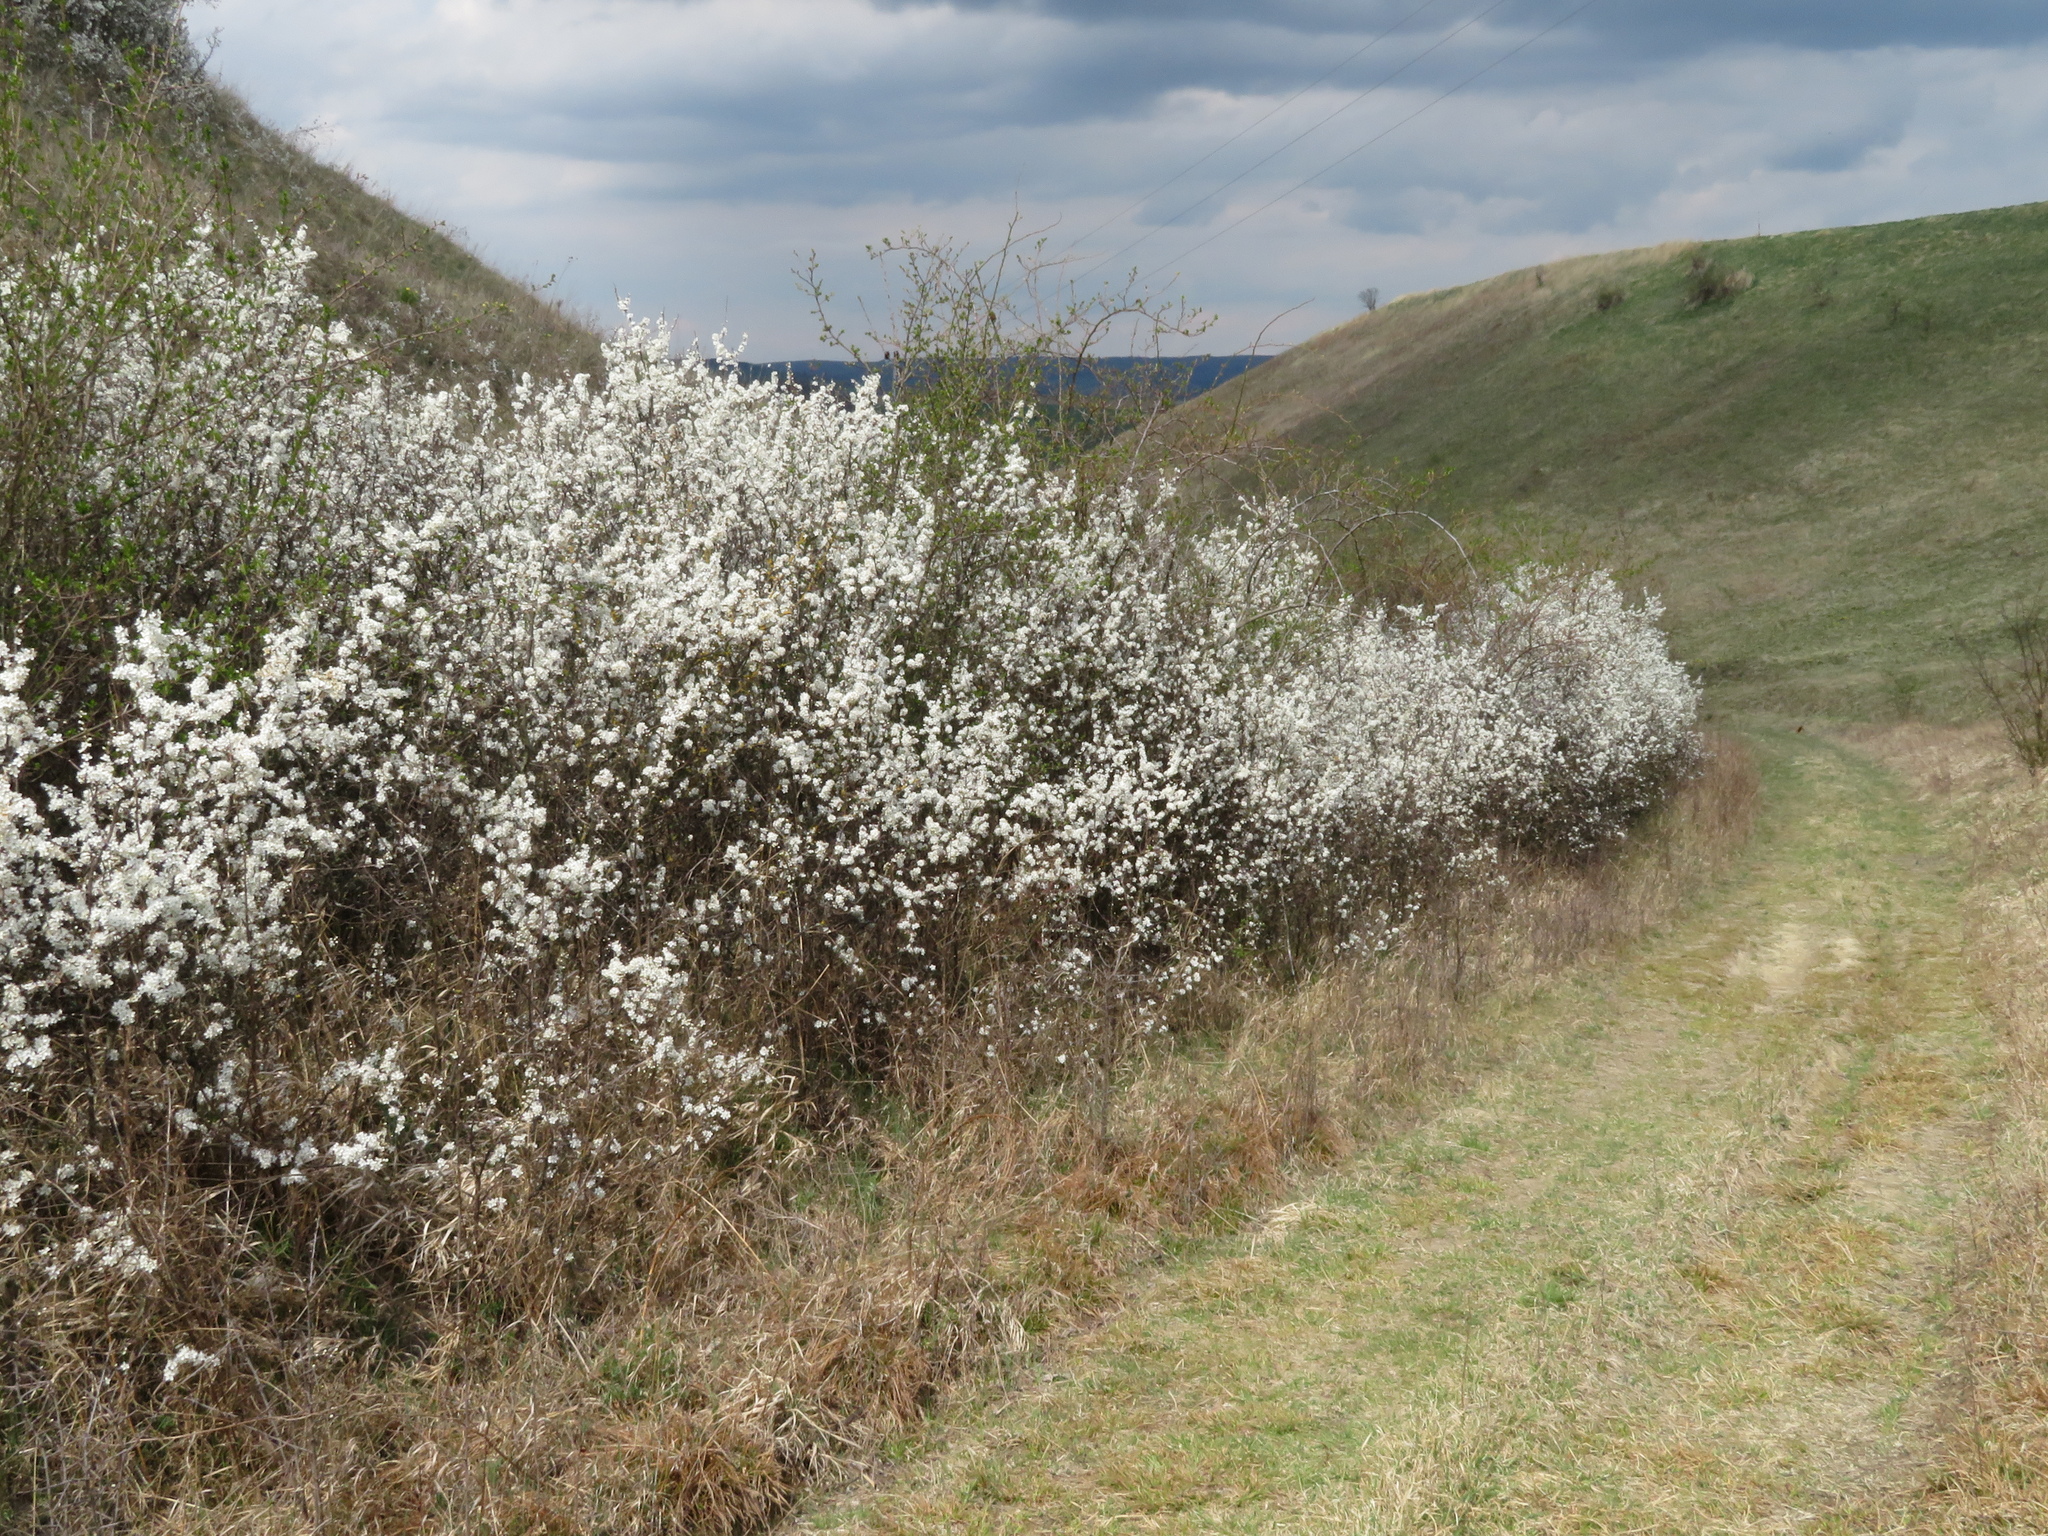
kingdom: Plantae
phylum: Tracheophyta
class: Magnoliopsida
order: Rosales
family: Rosaceae
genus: Prunus
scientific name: Prunus spinosa
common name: Blackthorn
